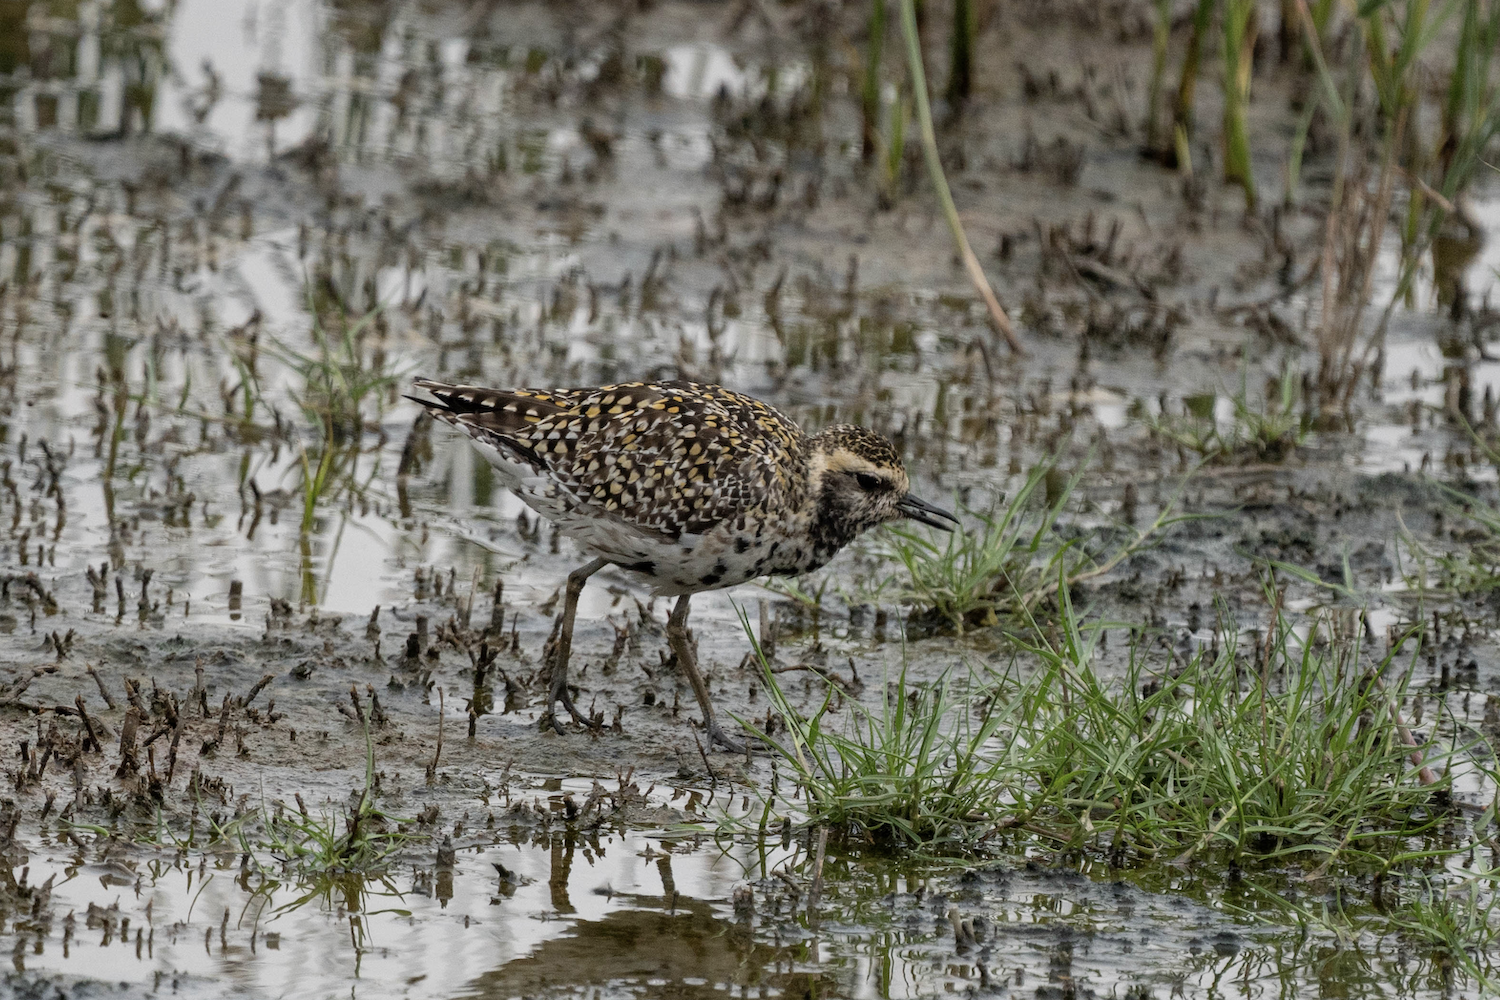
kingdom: Animalia
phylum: Chordata
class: Aves
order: Charadriiformes
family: Charadriidae
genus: Pluvialis
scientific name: Pluvialis fulva
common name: Pacific golden plover
